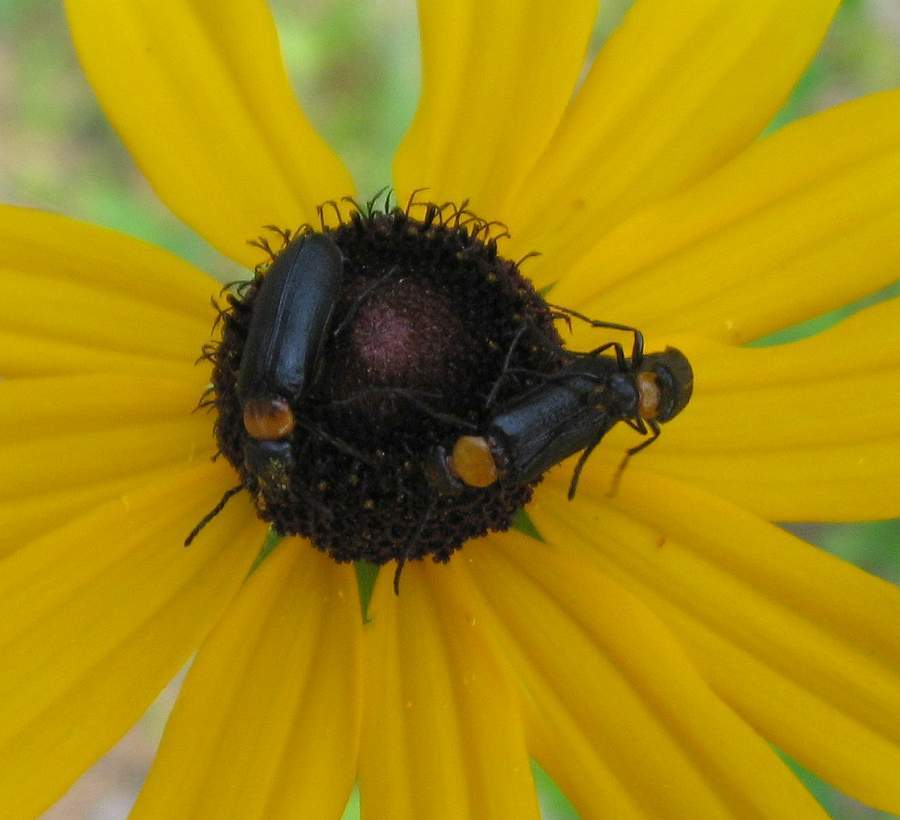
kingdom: Animalia
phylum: Arthropoda
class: Insecta
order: Coleoptera
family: Meloidae
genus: Nemognatha
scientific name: Nemognatha nemorensis
